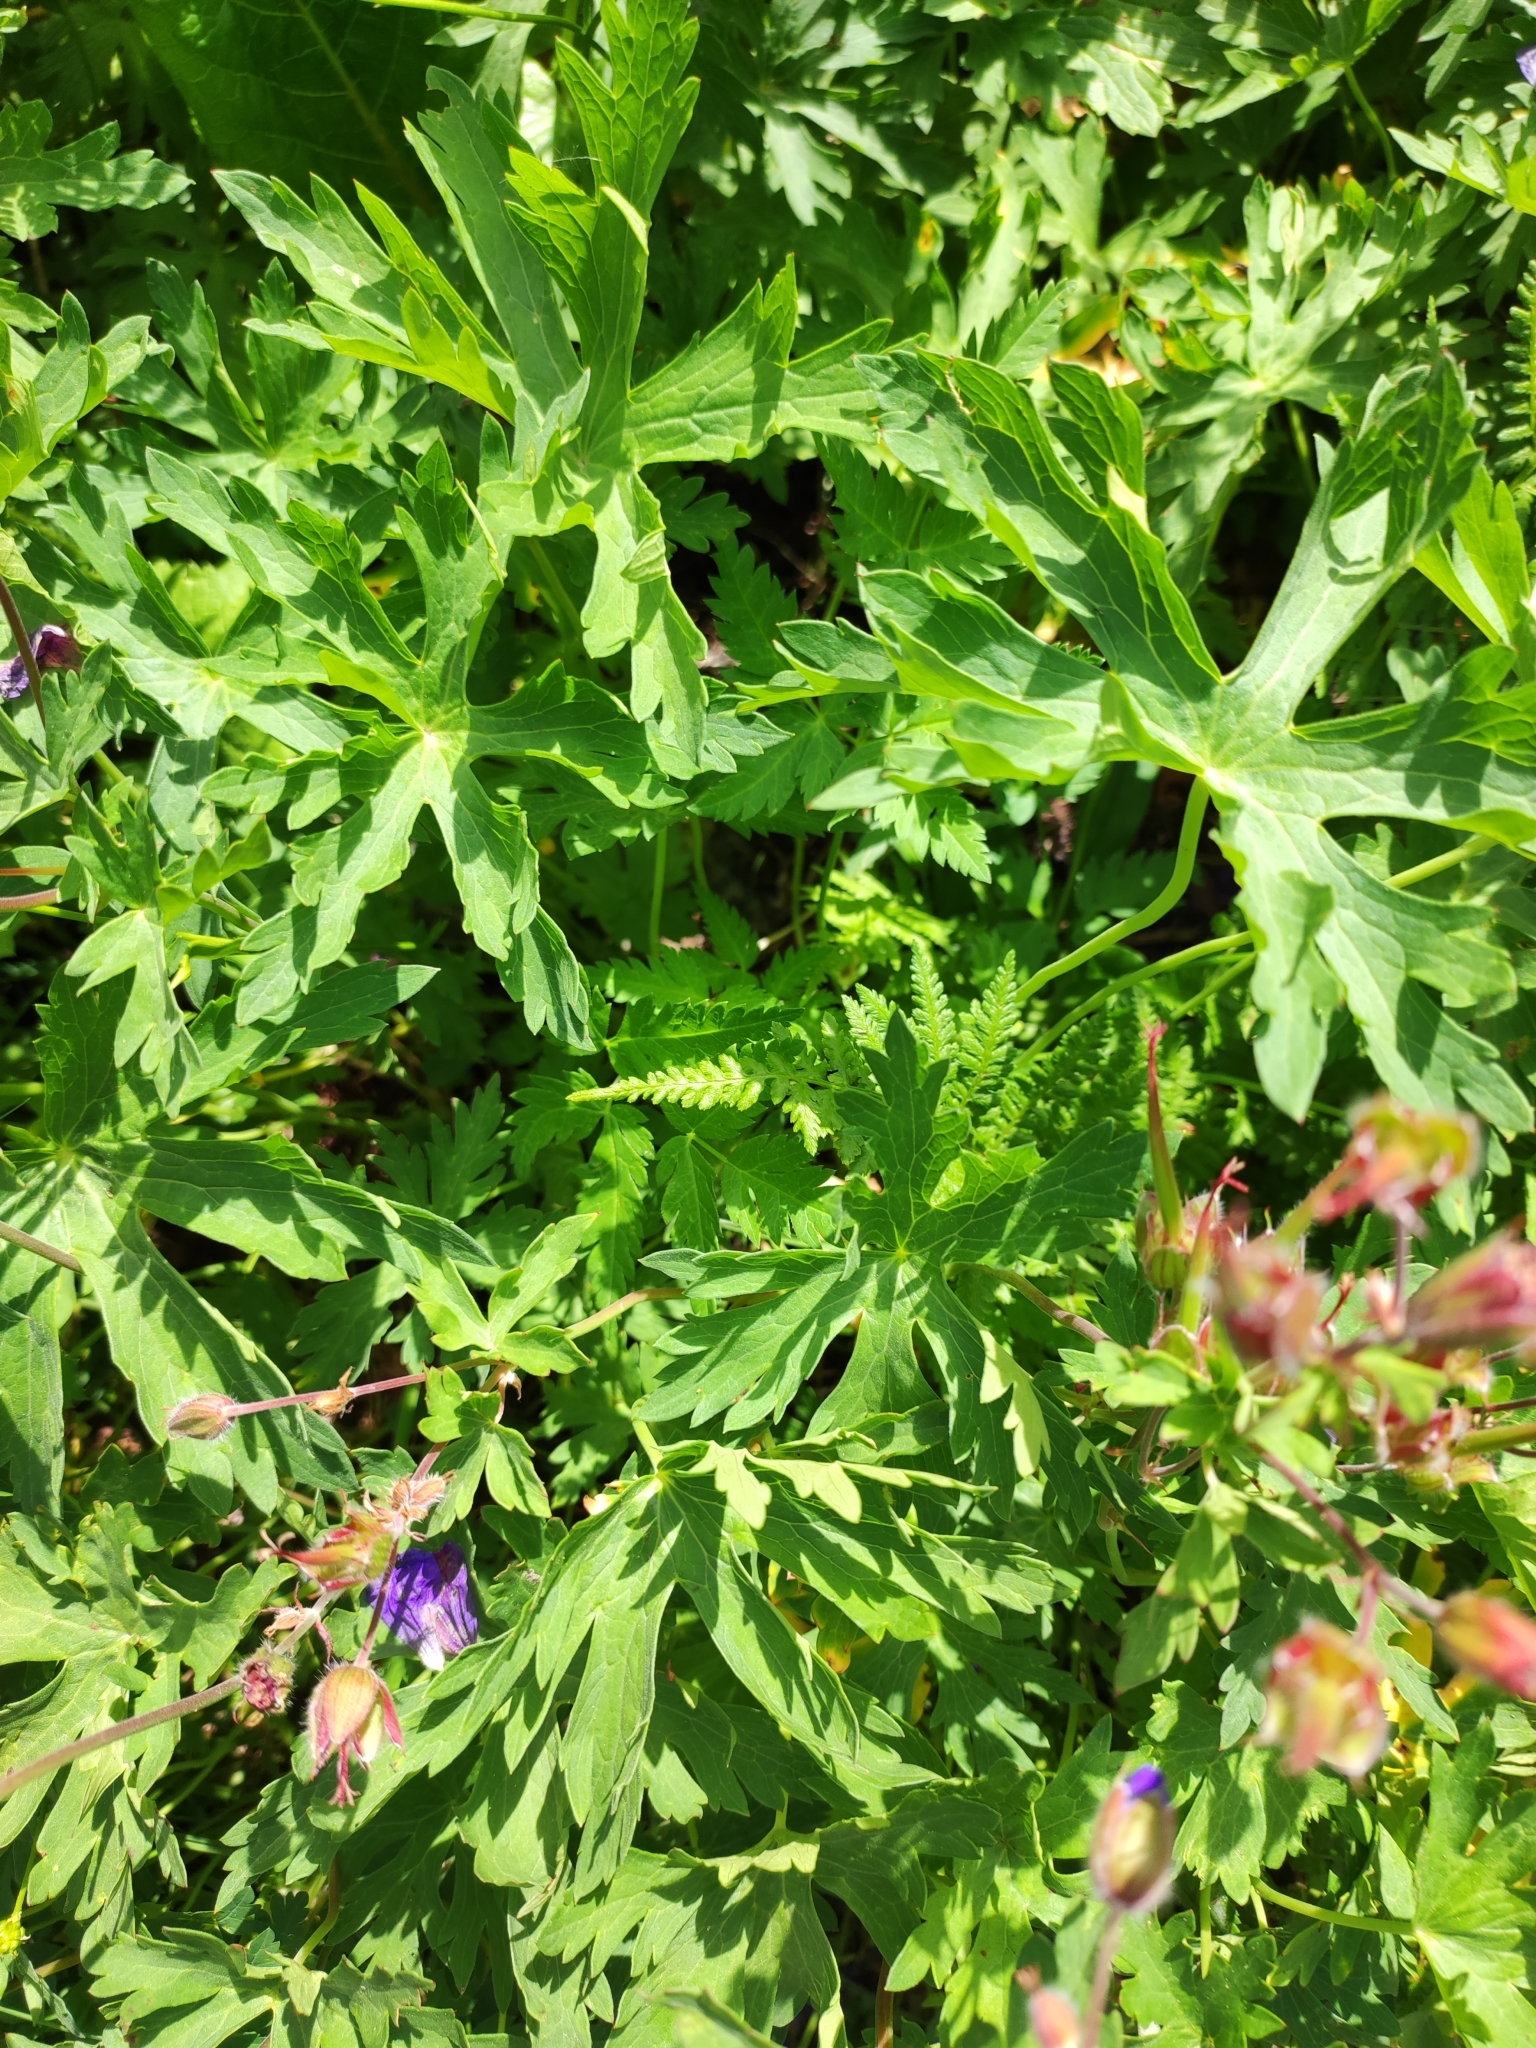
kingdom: Plantae
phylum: Tracheophyta
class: Magnoliopsida
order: Geraniales
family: Geraniaceae
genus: Geranium
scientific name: Geranium gymnocaulon
